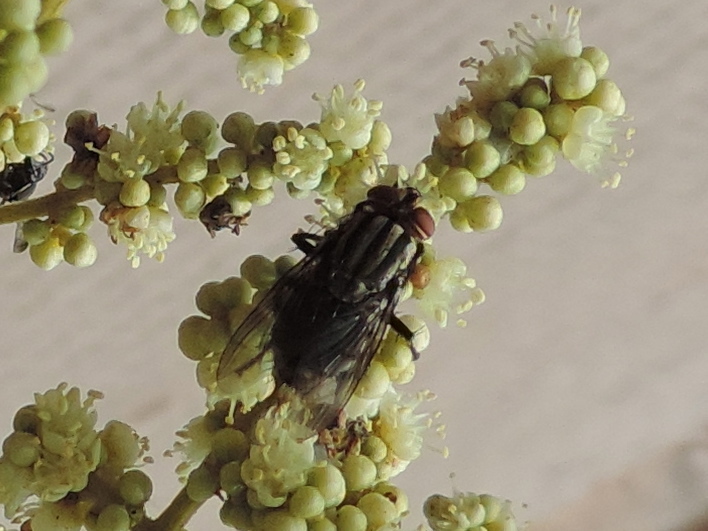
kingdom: Animalia
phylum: Arthropoda
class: Insecta
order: Diptera
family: Sarcophagidae
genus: Sarcophaga
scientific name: Sarcophaga
